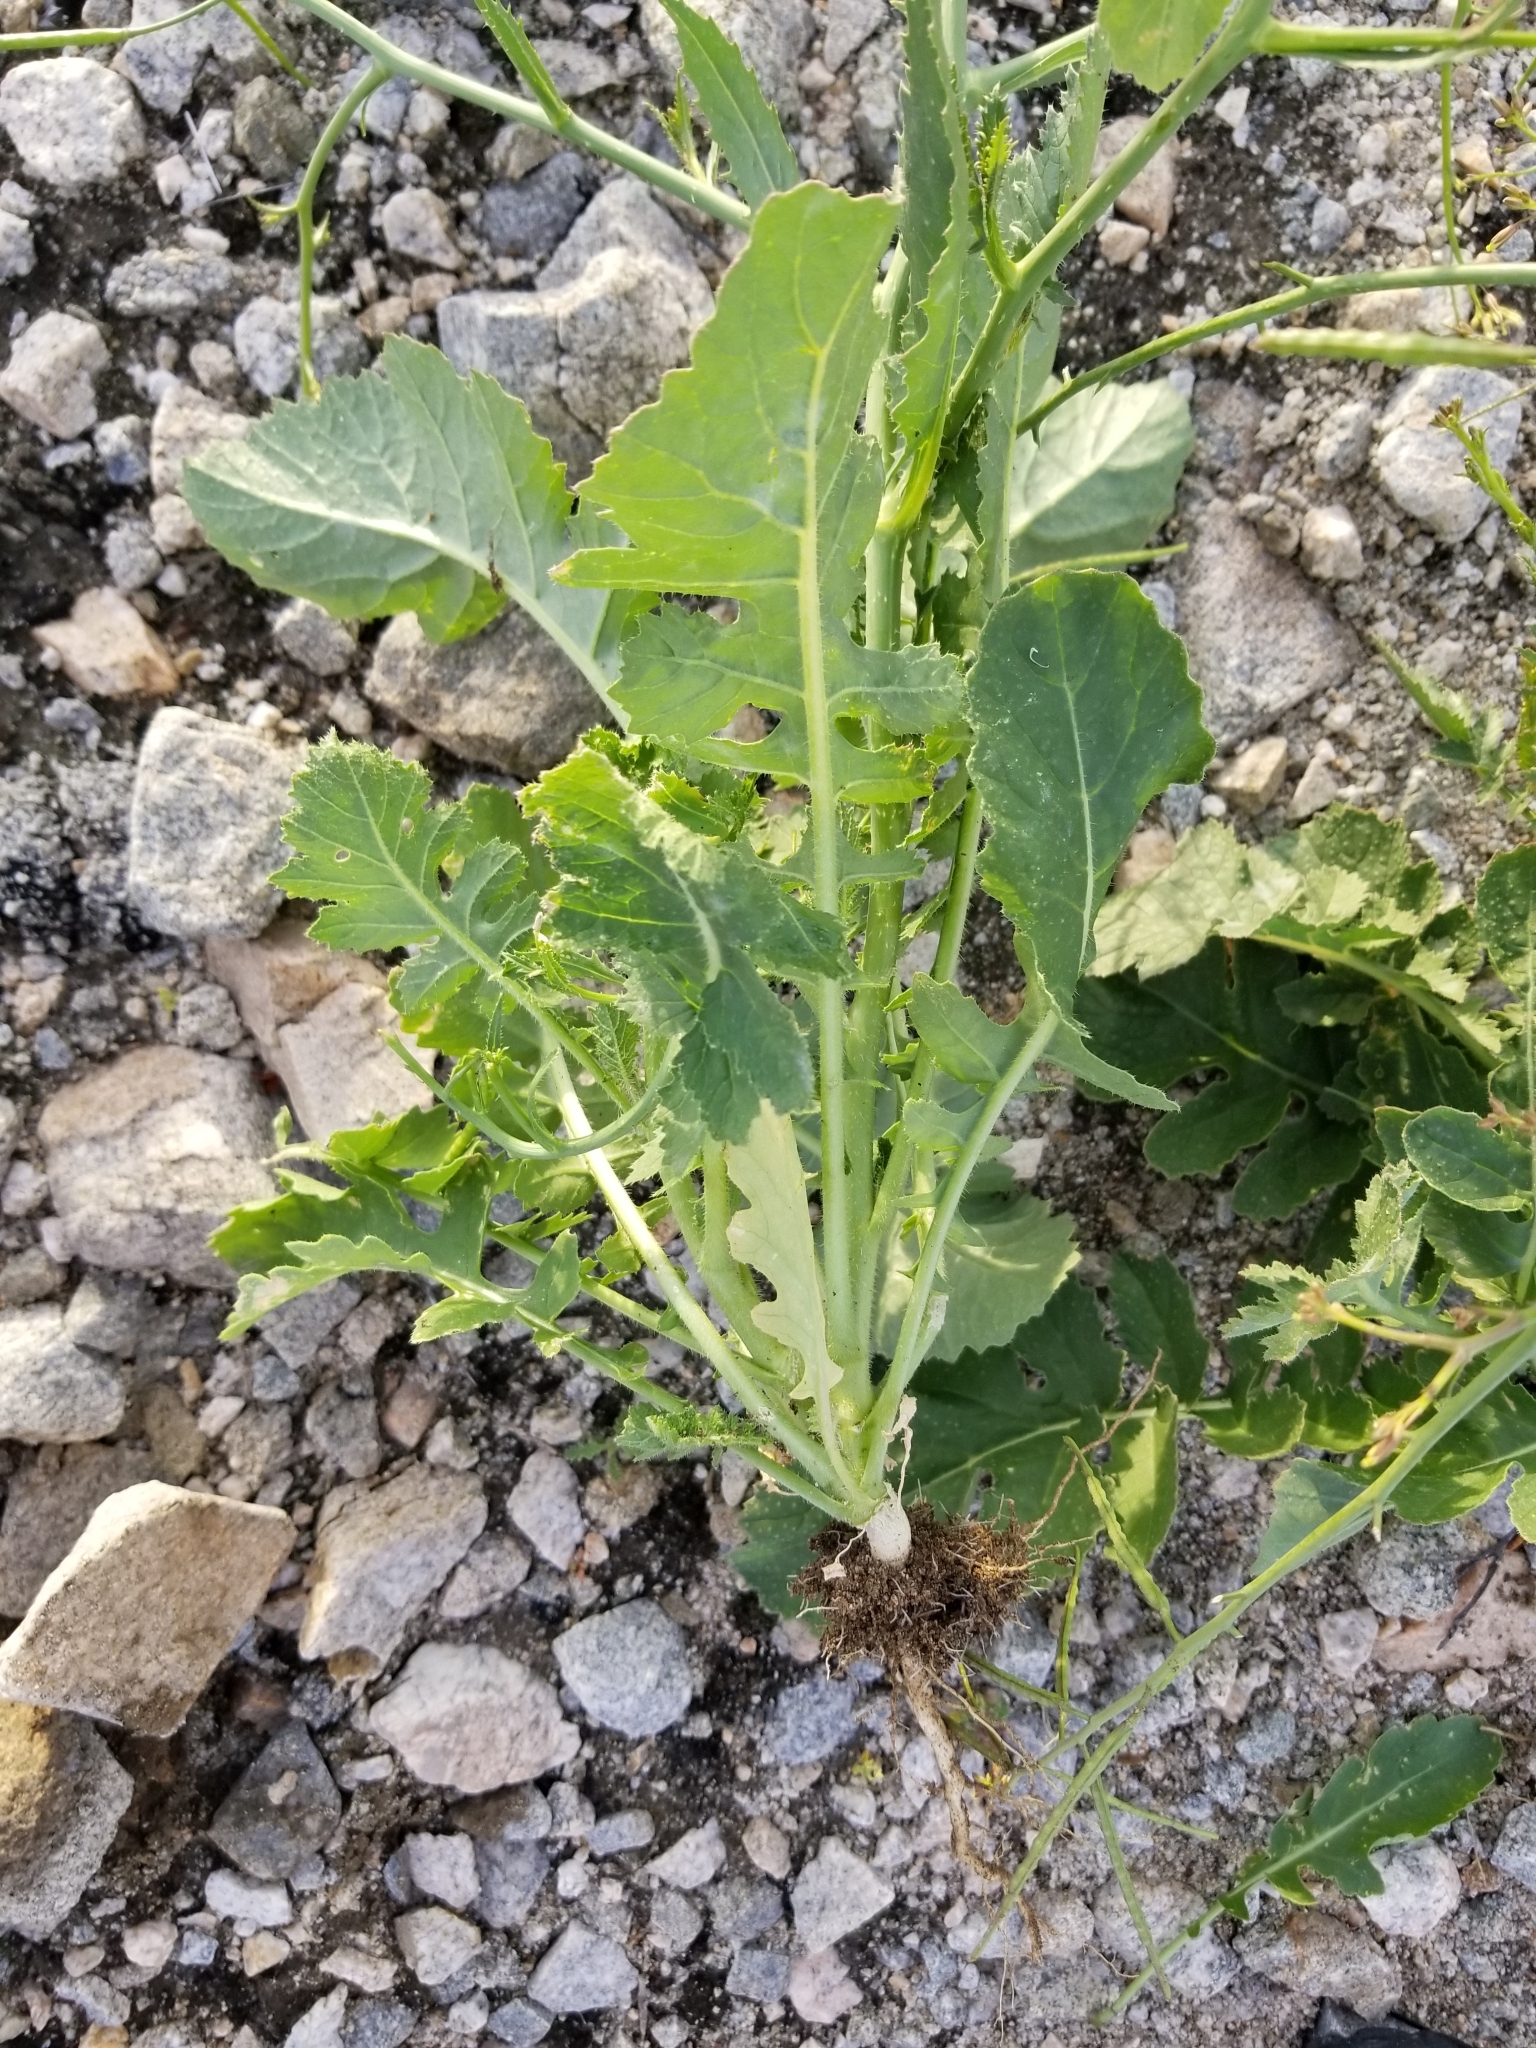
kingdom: Plantae
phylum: Tracheophyta
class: Magnoliopsida
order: Brassicales
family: Brassicaceae
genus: Brassica
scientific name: Brassica tournefortii
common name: Pale cabbage
